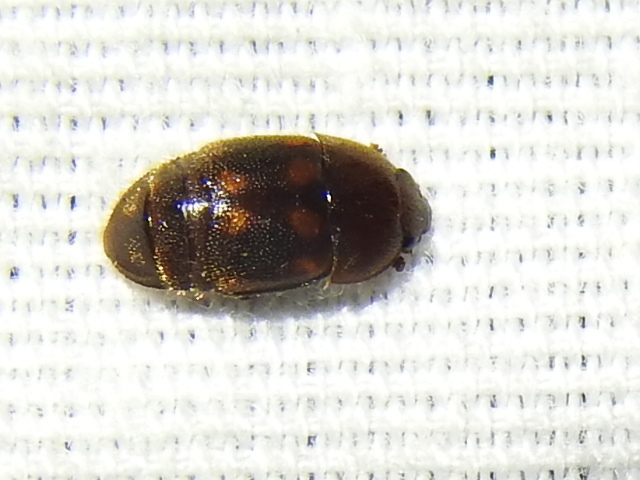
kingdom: Animalia
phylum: Arthropoda
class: Insecta
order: Coleoptera
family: Nitidulidae
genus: Colopterus
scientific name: Colopterus maculatus
